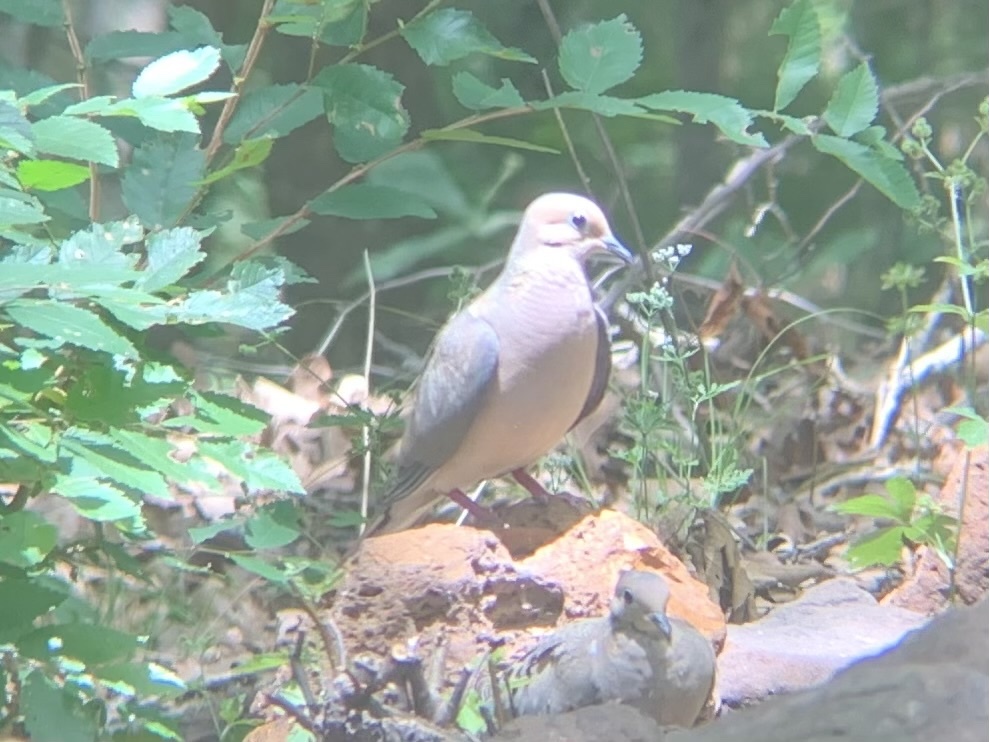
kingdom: Animalia
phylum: Chordata
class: Aves
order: Columbiformes
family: Columbidae
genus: Zenaida
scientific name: Zenaida macroura
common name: Mourning dove
